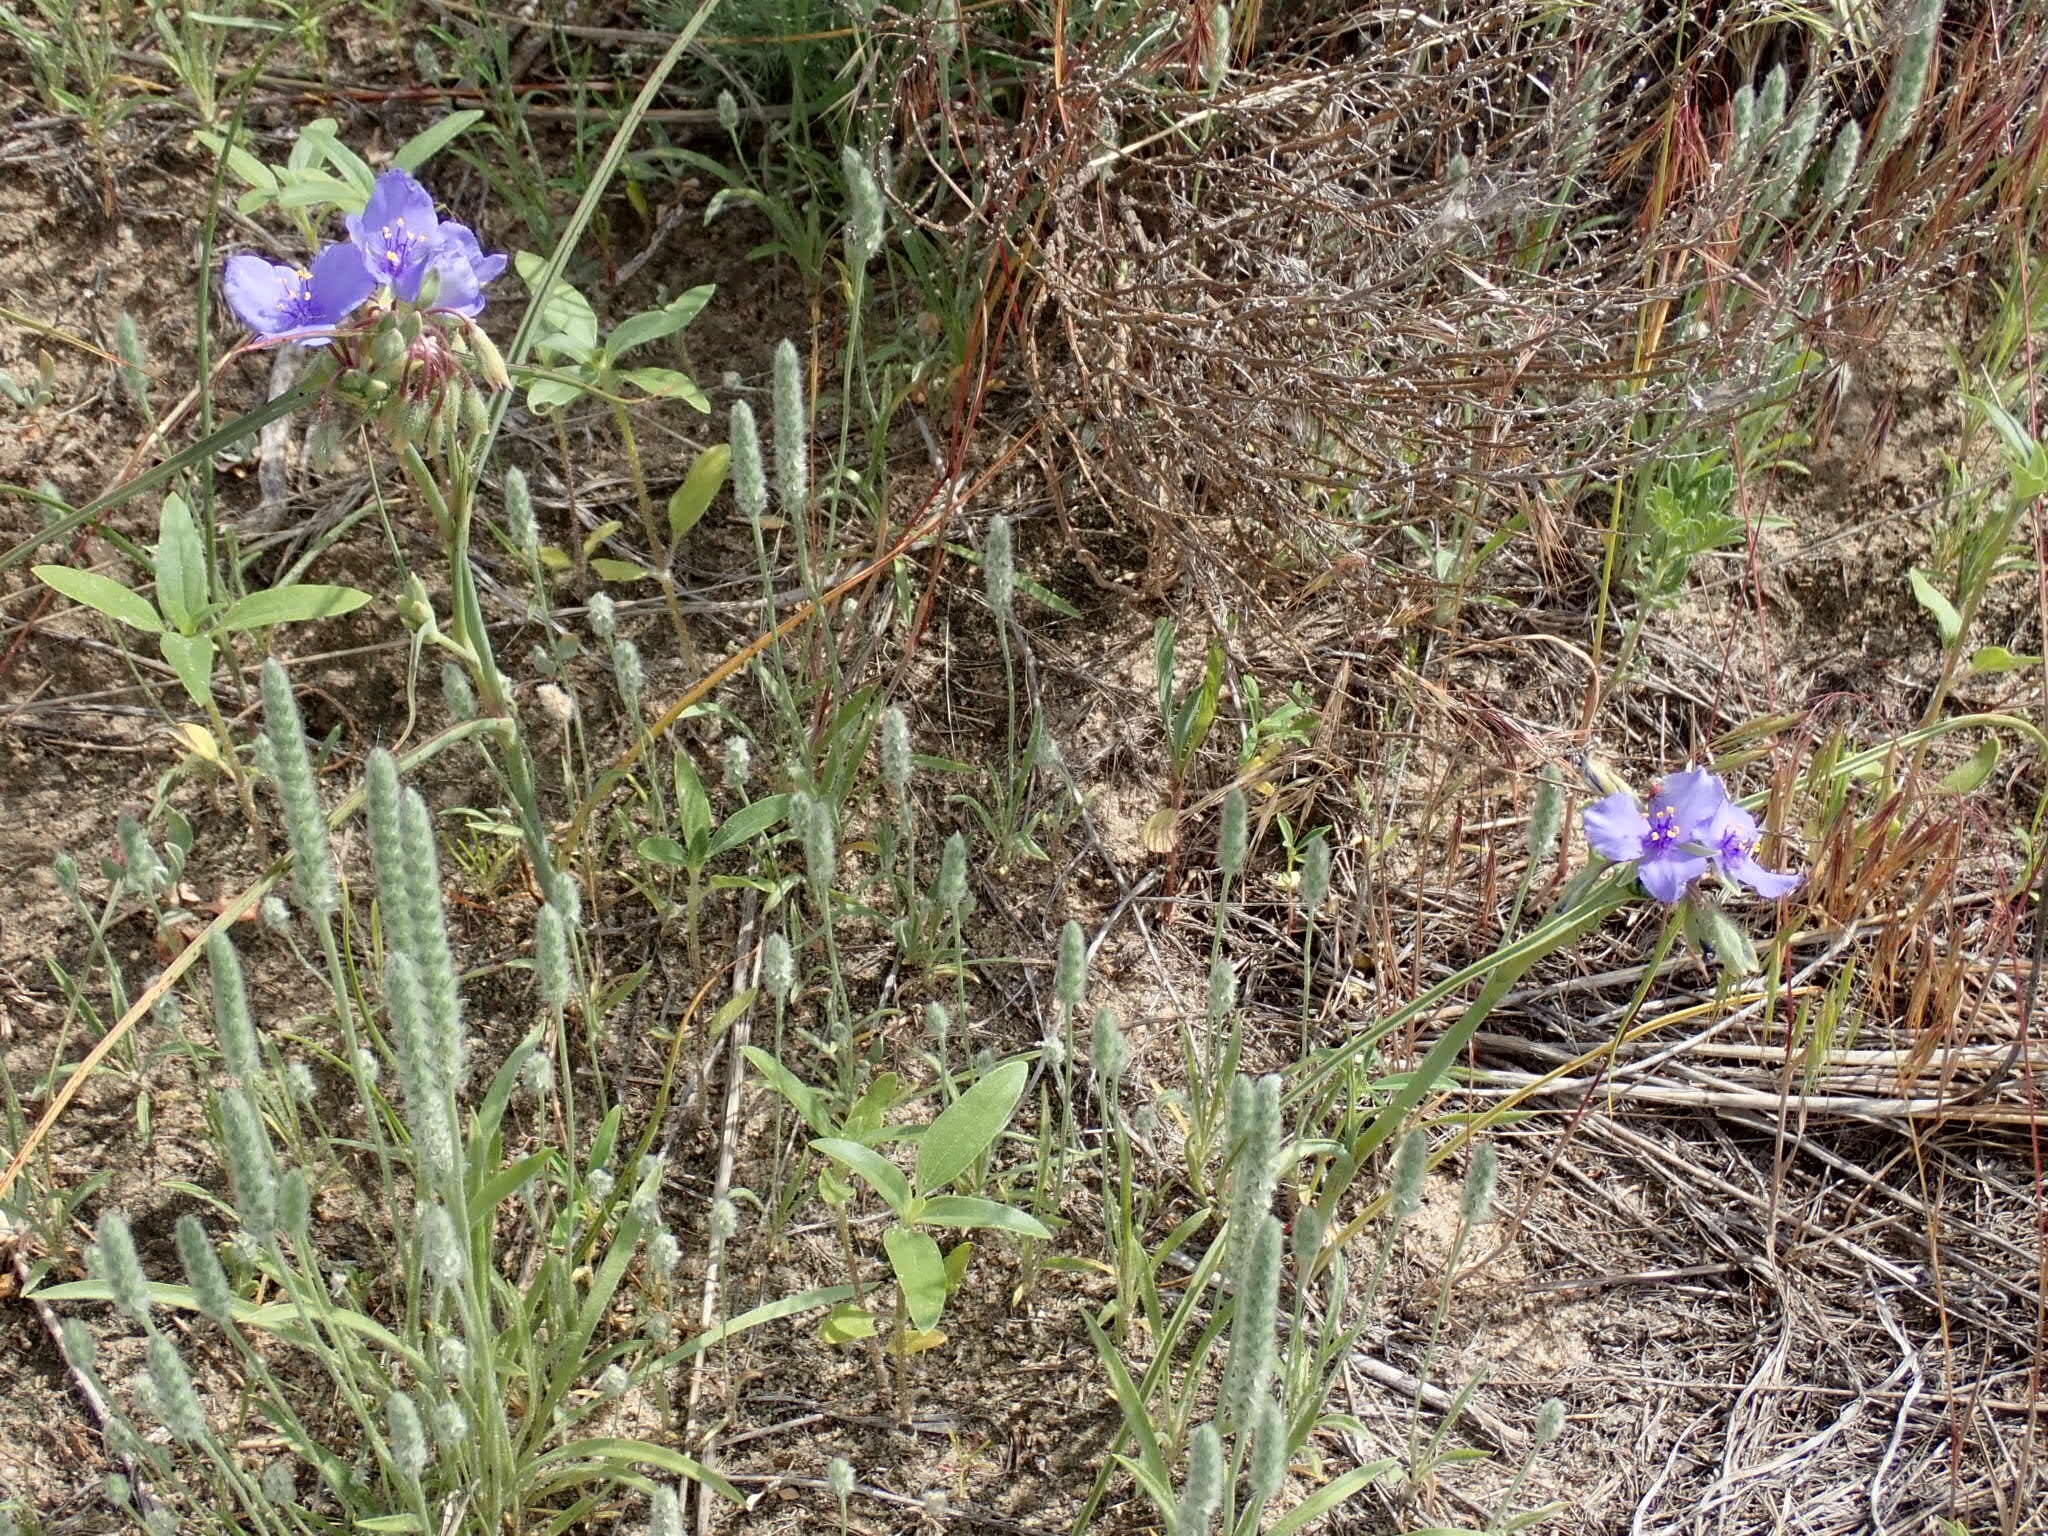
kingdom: Plantae
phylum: Tracheophyta
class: Liliopsida
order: Commelinales
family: Commelinaceae
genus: Tradescantia
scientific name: Tradescantia occidentalis
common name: Prairie spiderwort
